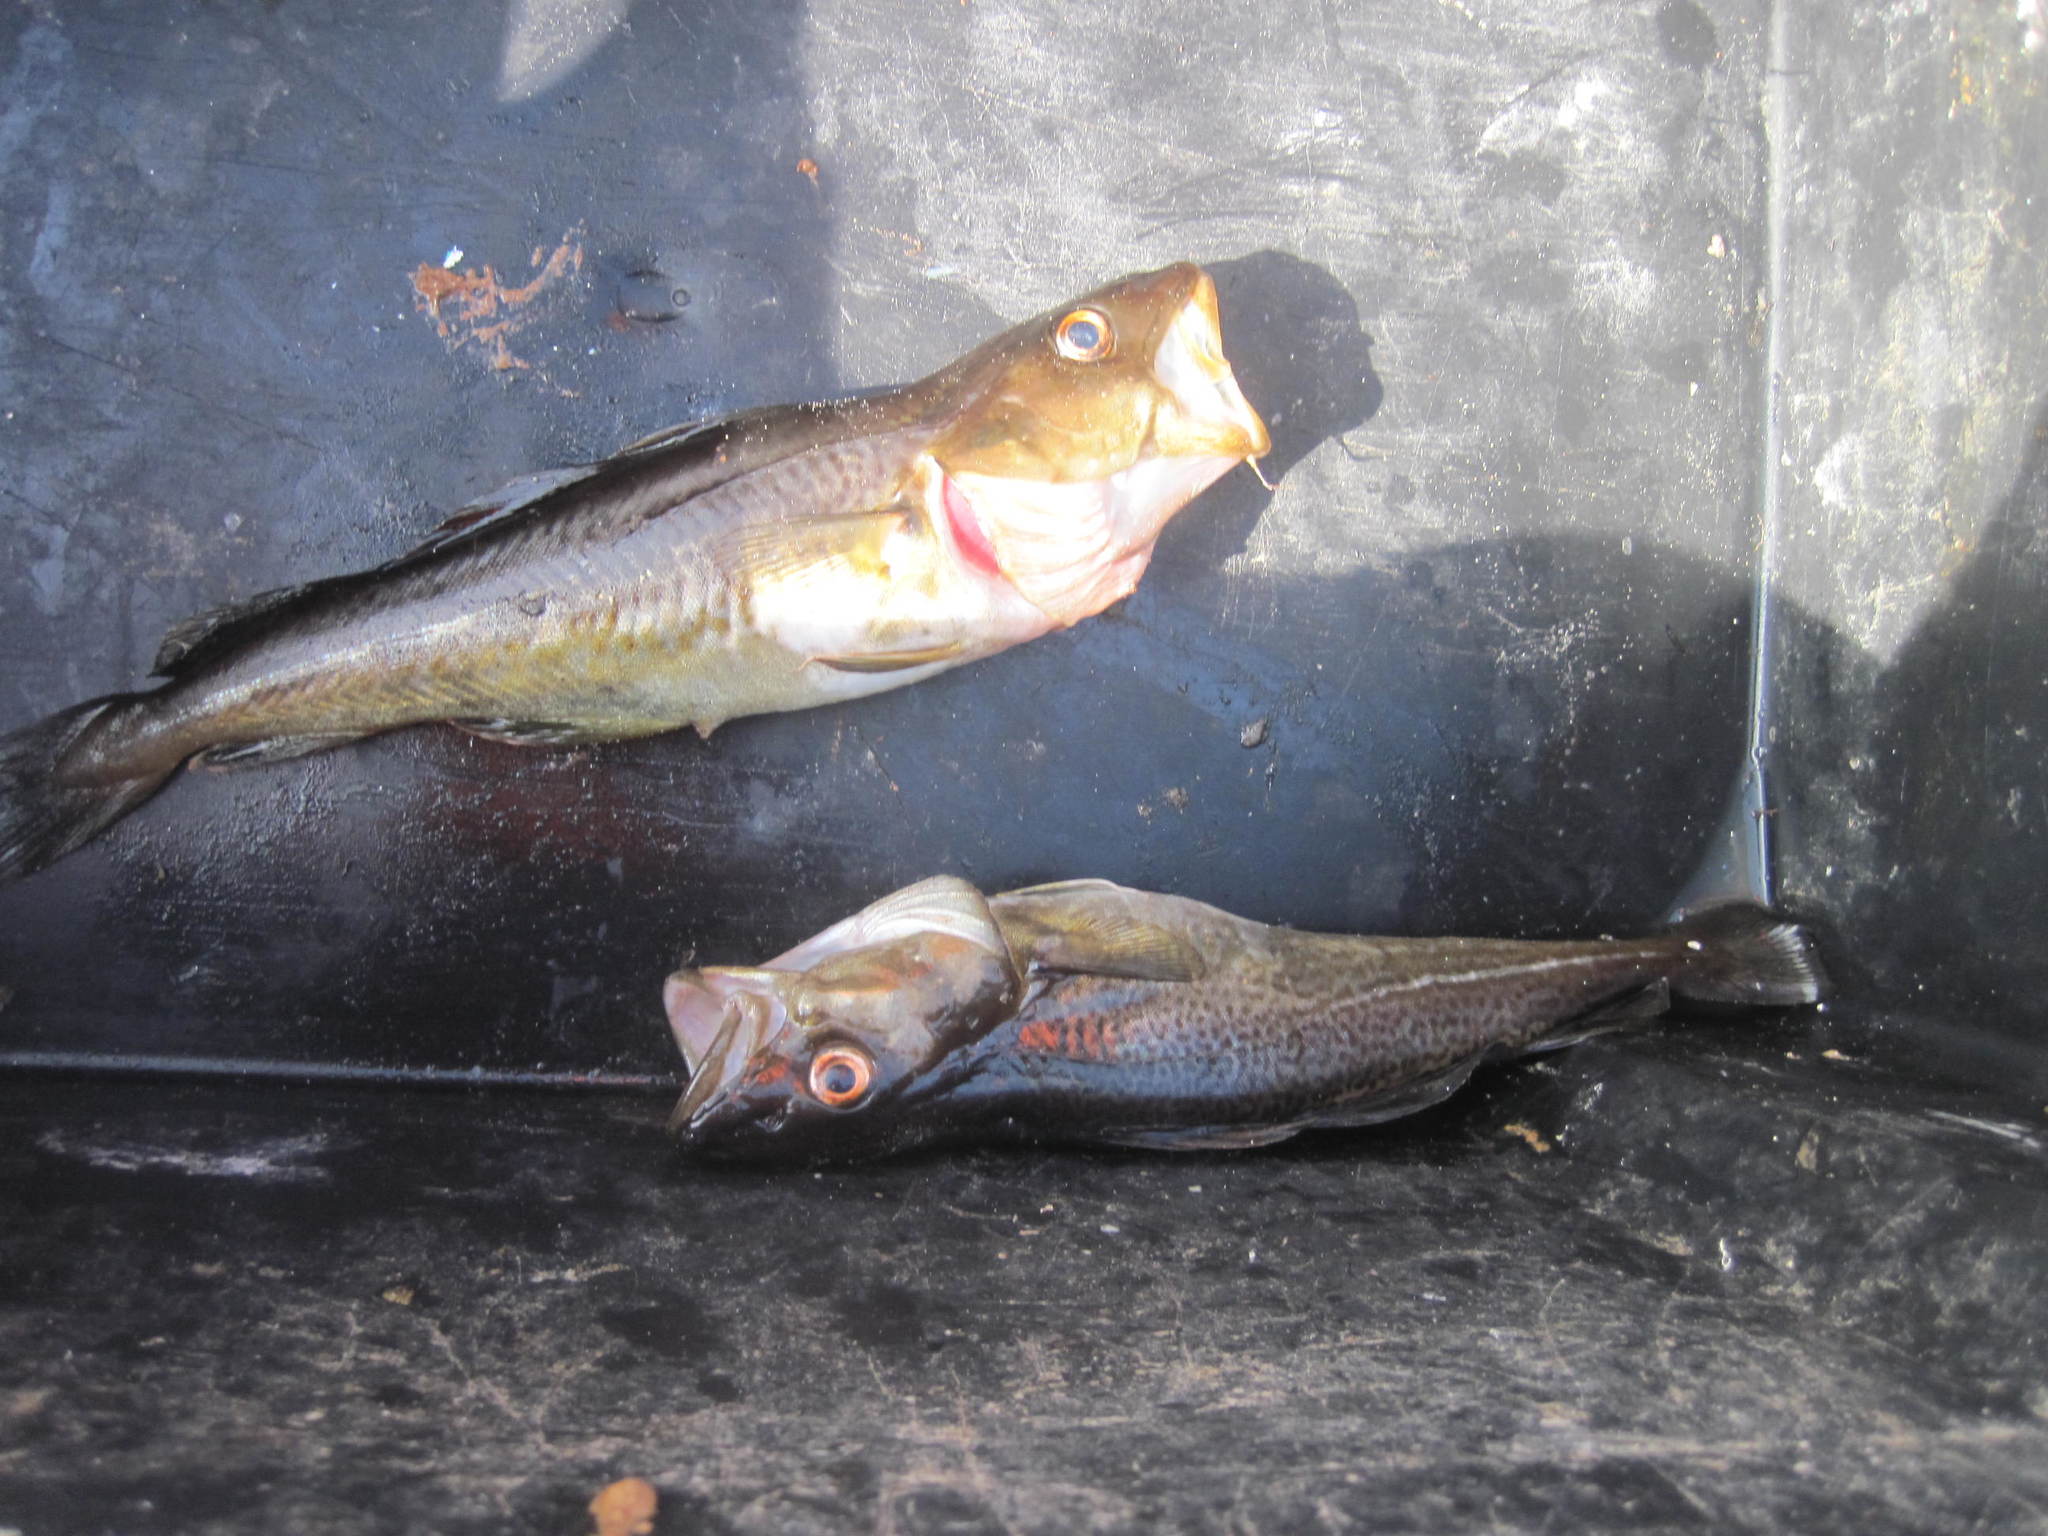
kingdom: Animalia
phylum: Chordata
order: Gadiformes
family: Gadidae
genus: Gadus
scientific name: Gadus morhua
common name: Atlantic cod
